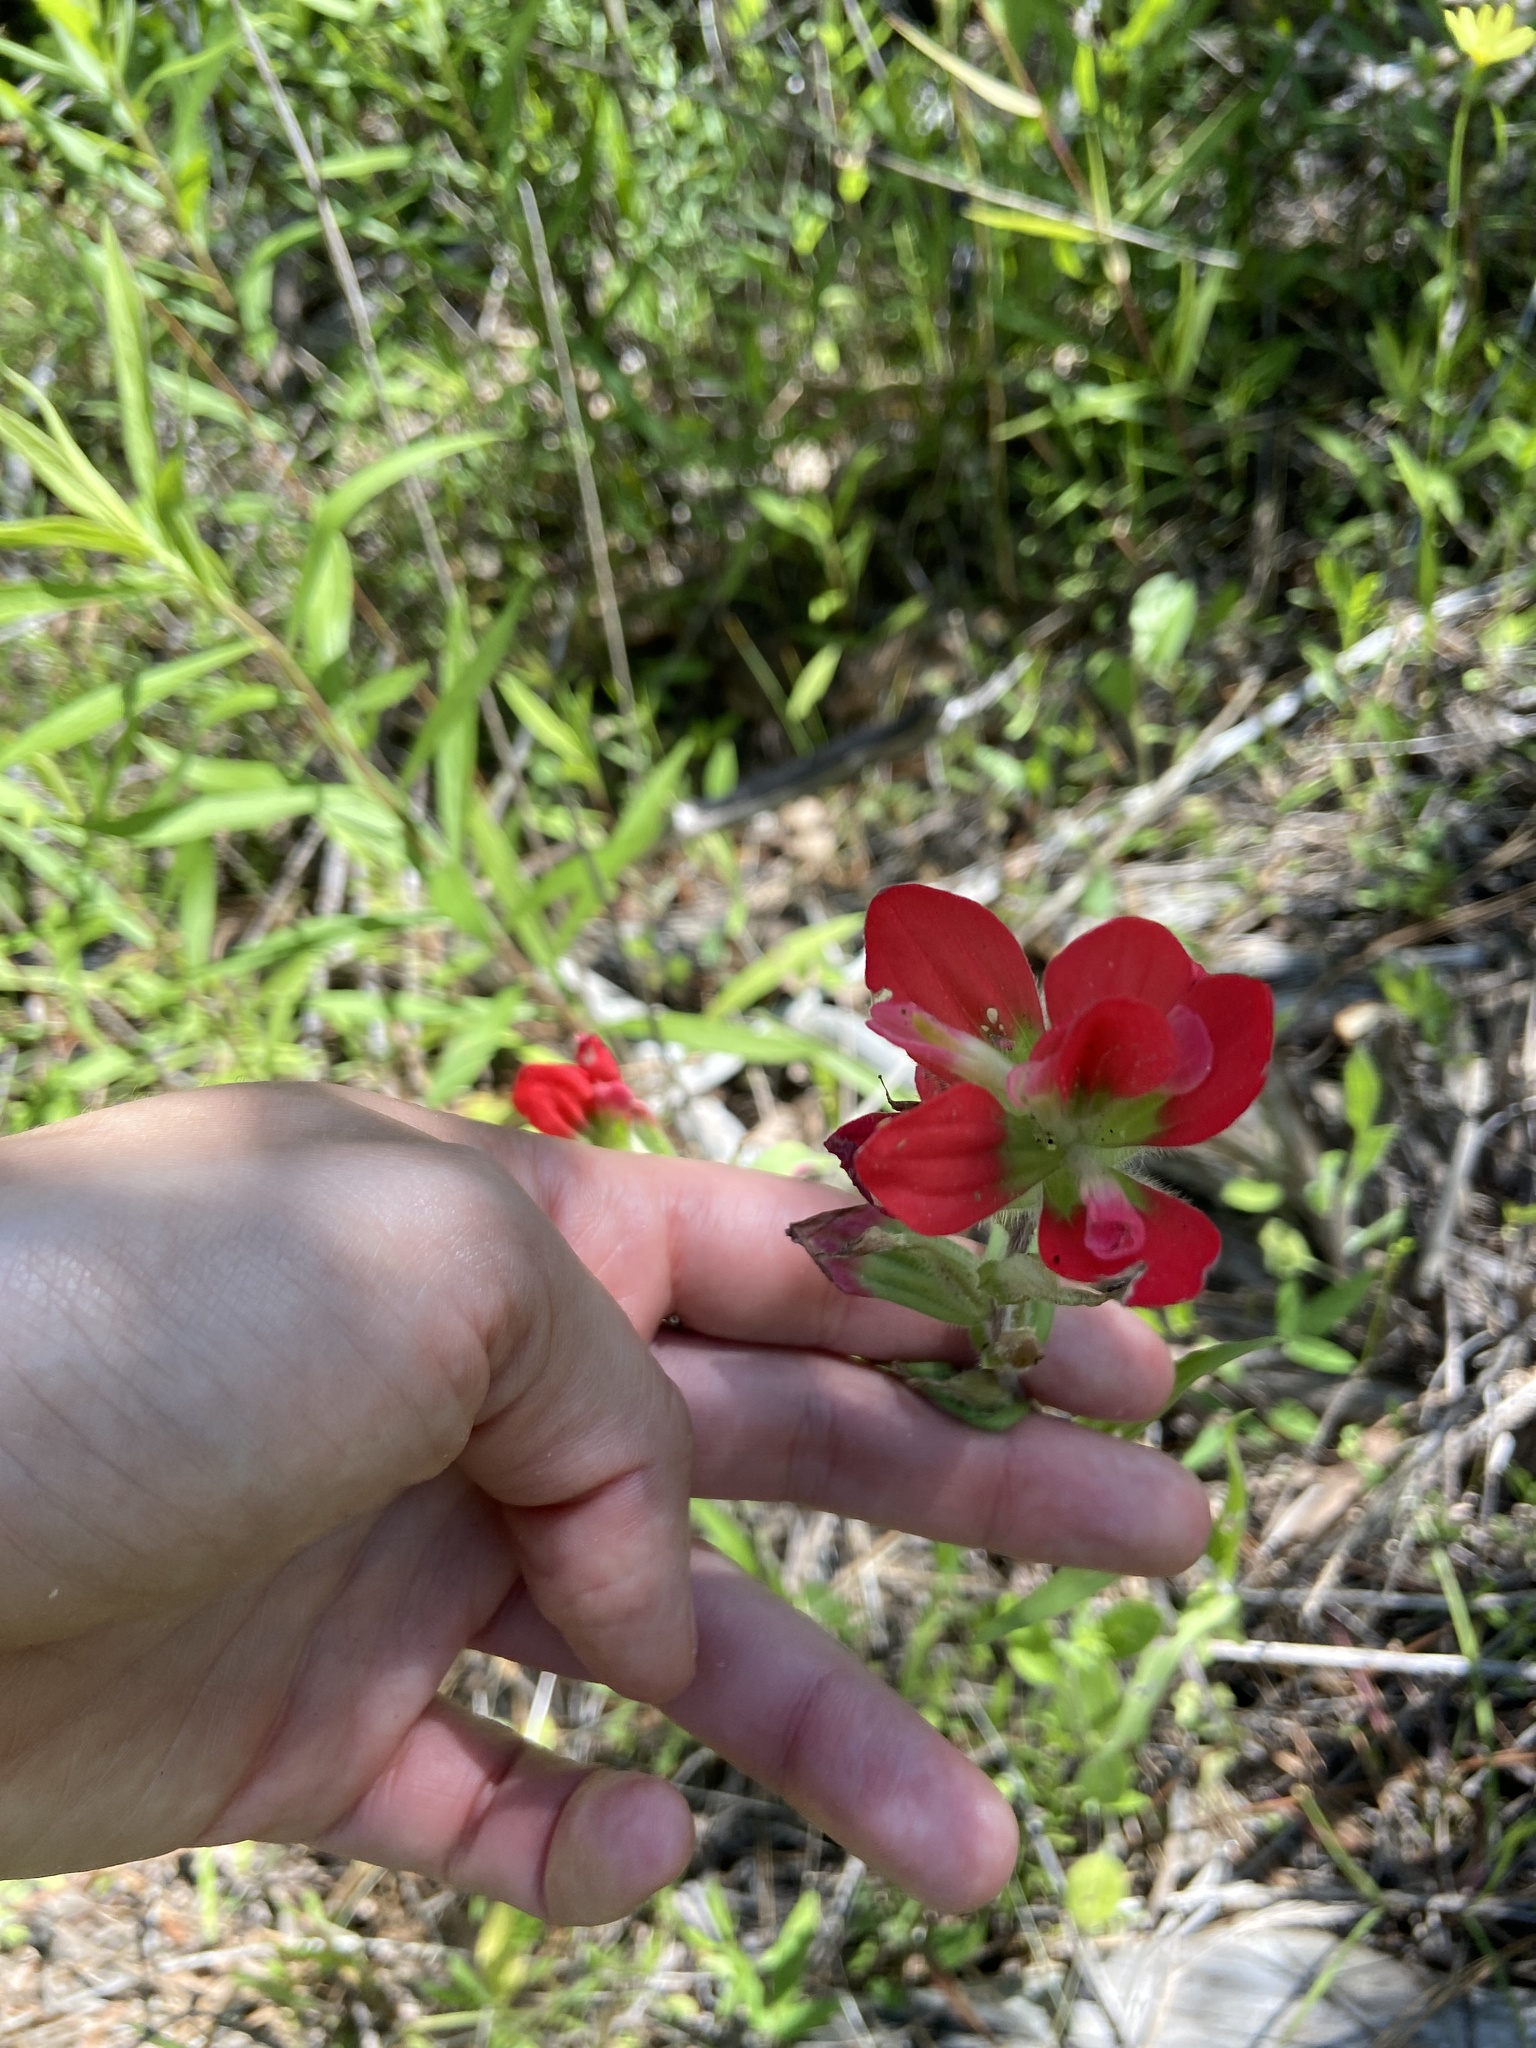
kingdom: Plantae
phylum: Tracheophyta
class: Magnoliopsida
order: Lamiales
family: Orobanchaceae
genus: Castilleja
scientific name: Castilleja indivisa
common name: Texas paintbrush
